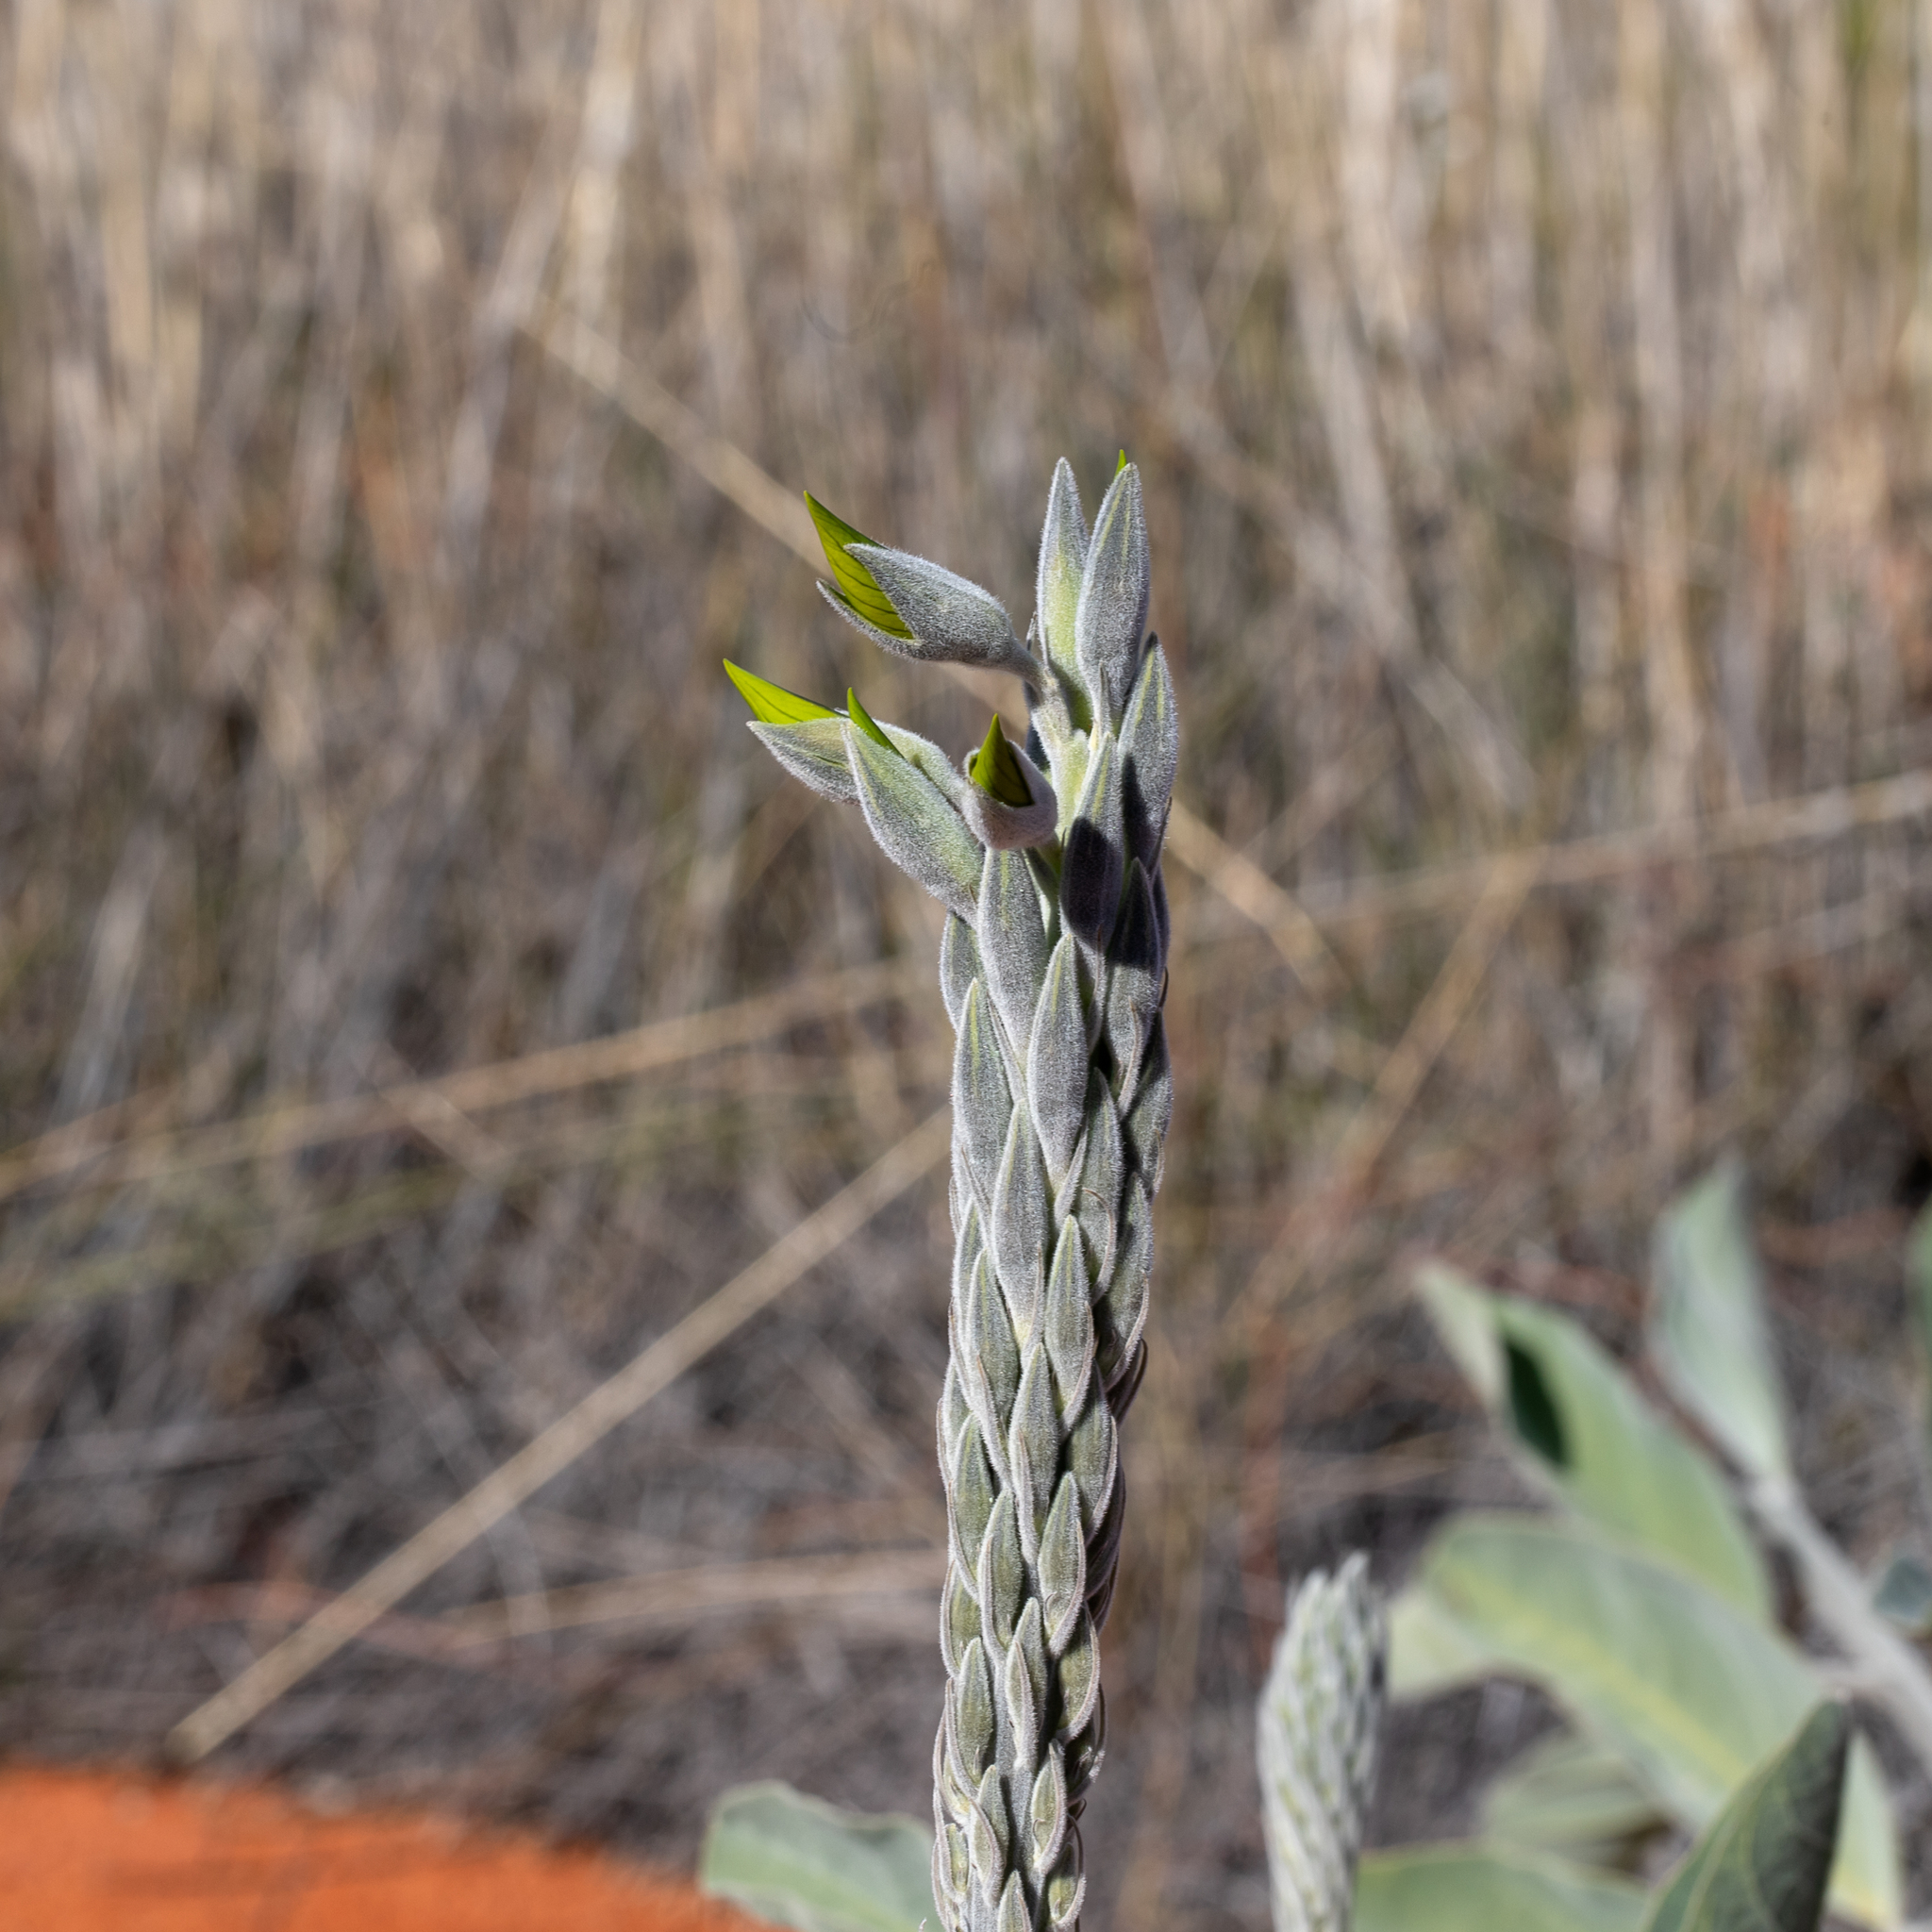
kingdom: Plantae
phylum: Tracheophyta
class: Magnoliopsida
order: Fabales
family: Fabaceae
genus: Crotalaria
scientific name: Crotalaria cunninghamii
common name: Birdflower rattlepod
